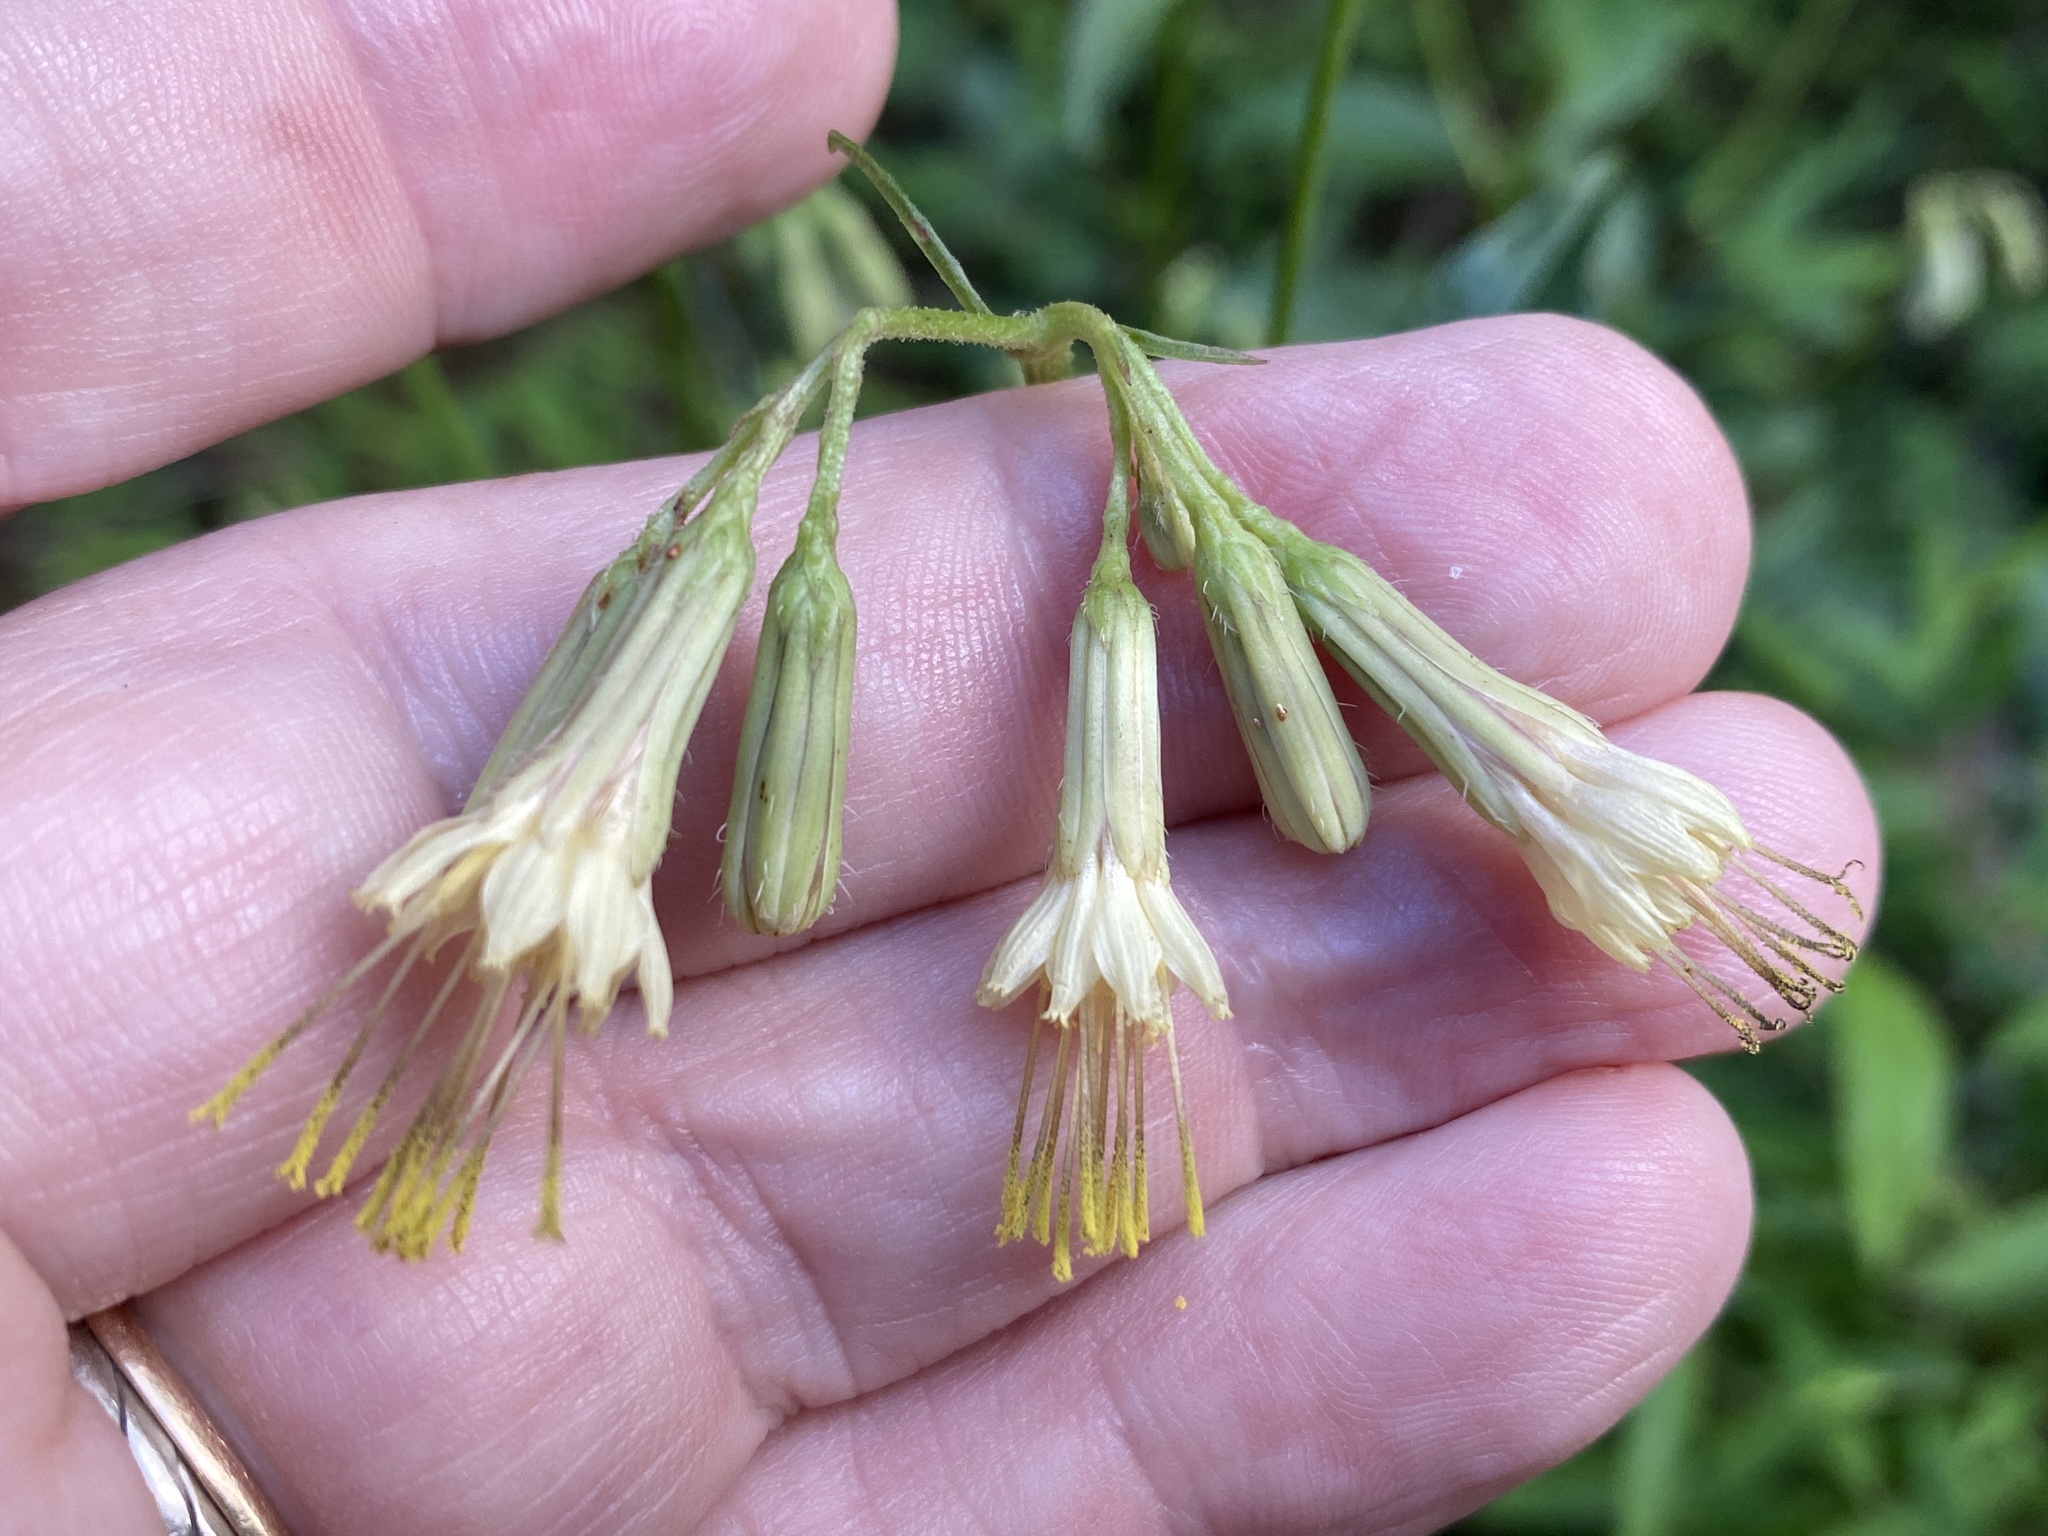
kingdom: Plantae
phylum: Tracheophyta
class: Magnoliopsida
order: Asterales
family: Asteraceae
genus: Nabalus
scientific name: Nabalus serpentarius
